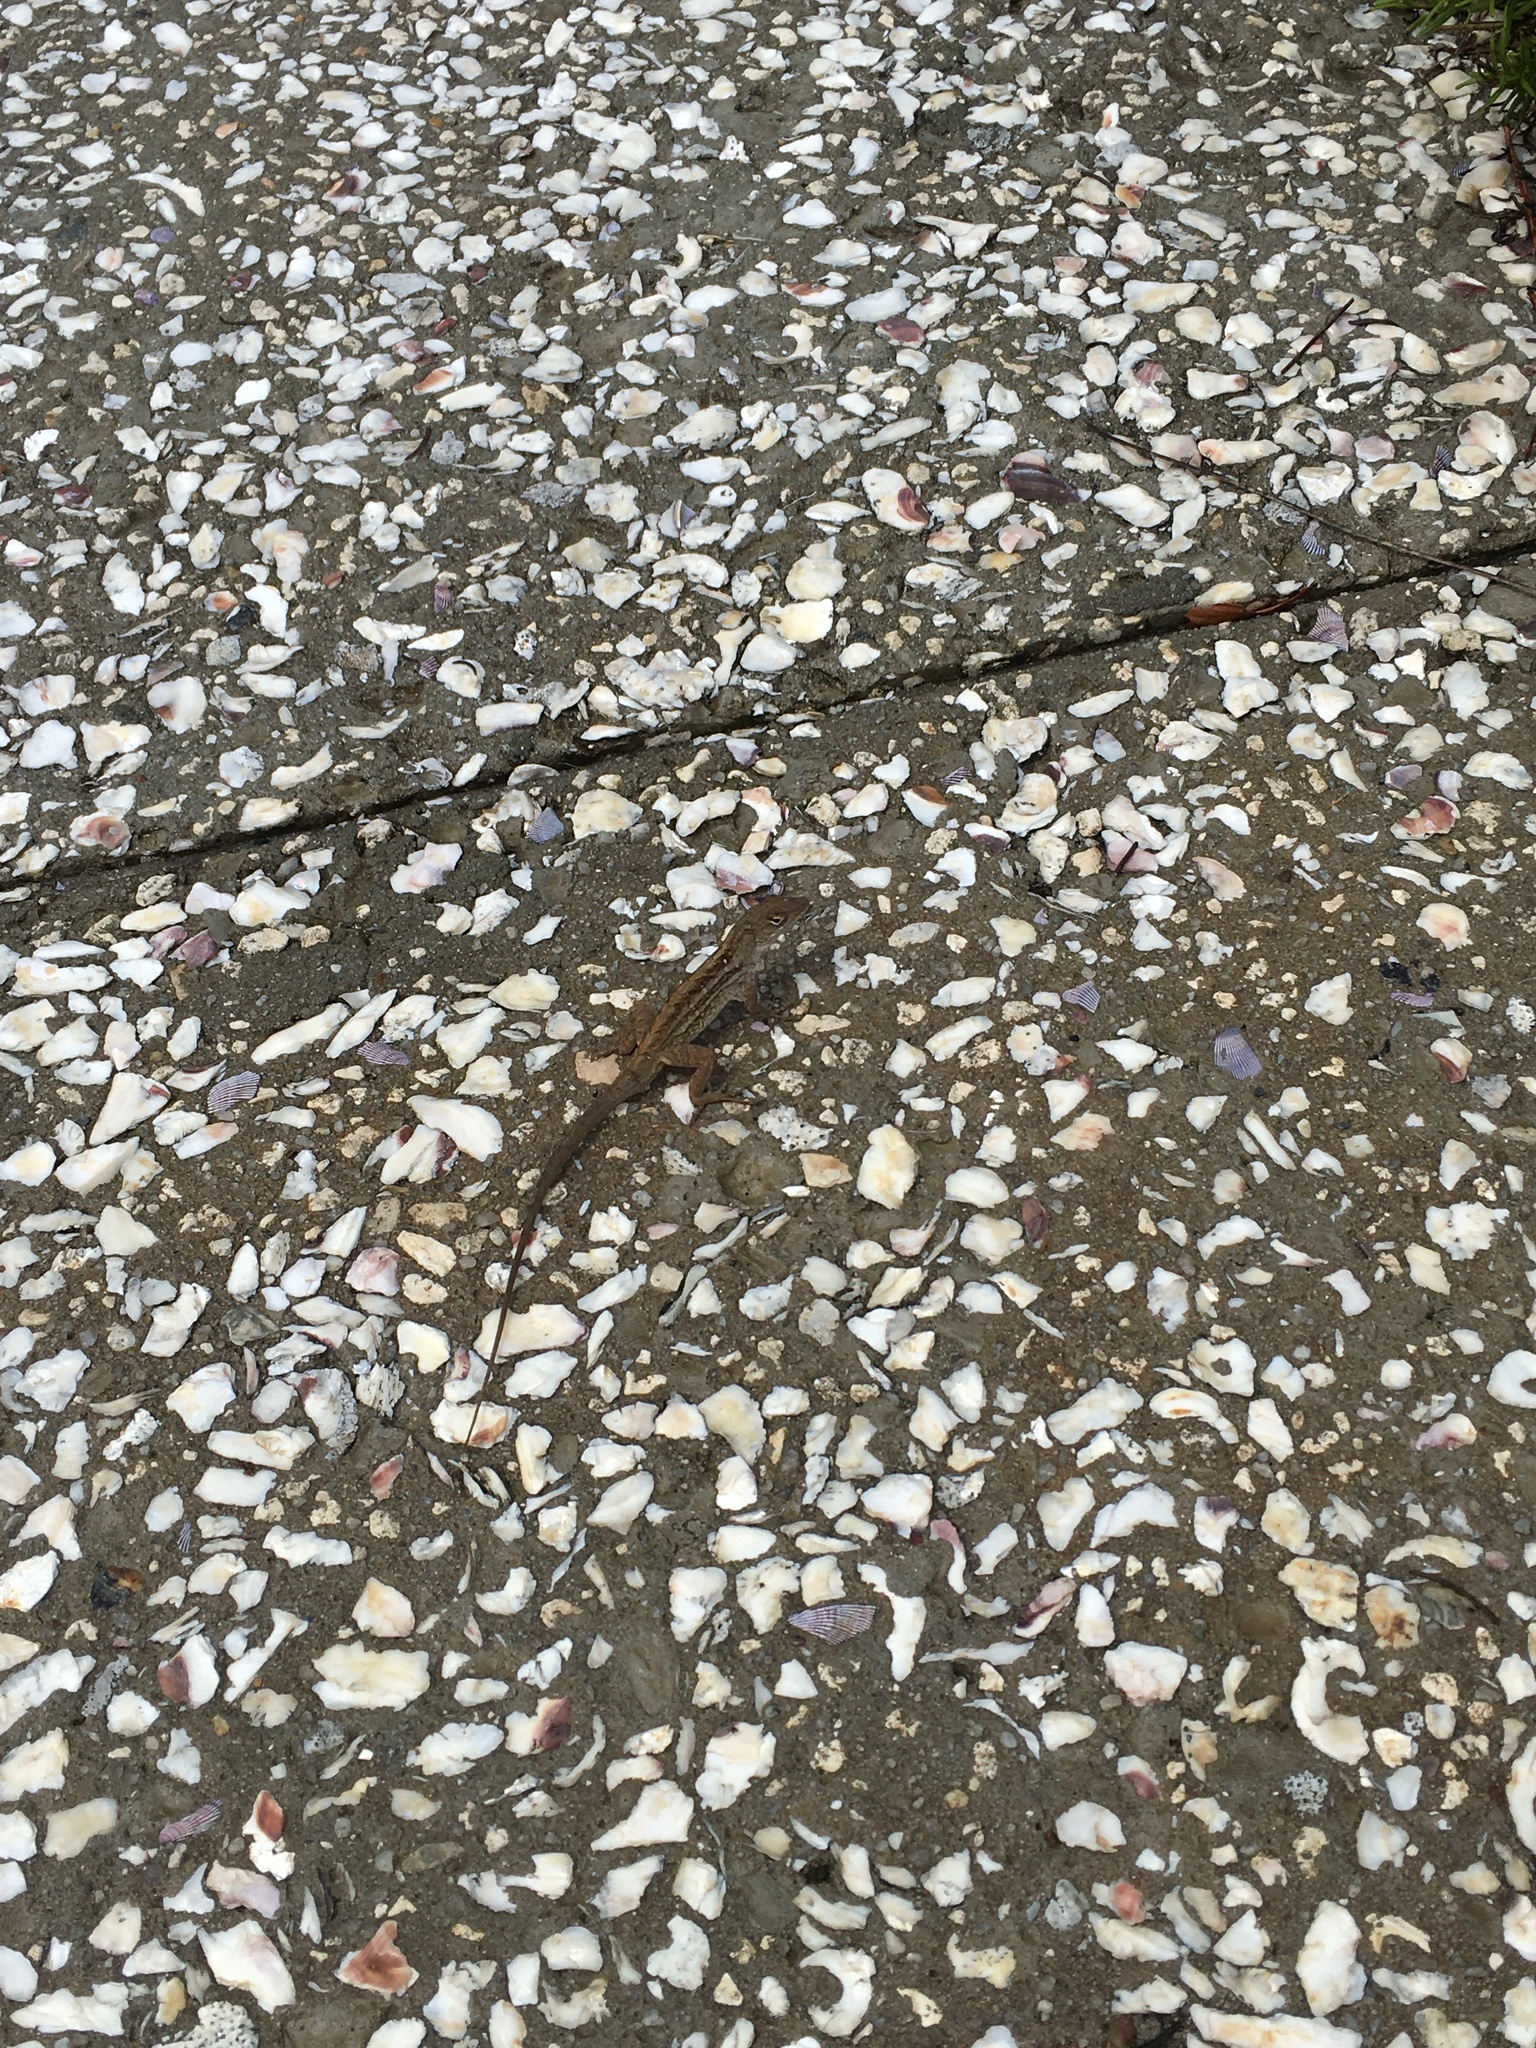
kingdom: Animalia
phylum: Chordata
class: Squamata
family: Dactyloidae
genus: Anolis
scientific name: Anolis sagrei
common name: Brown anole
